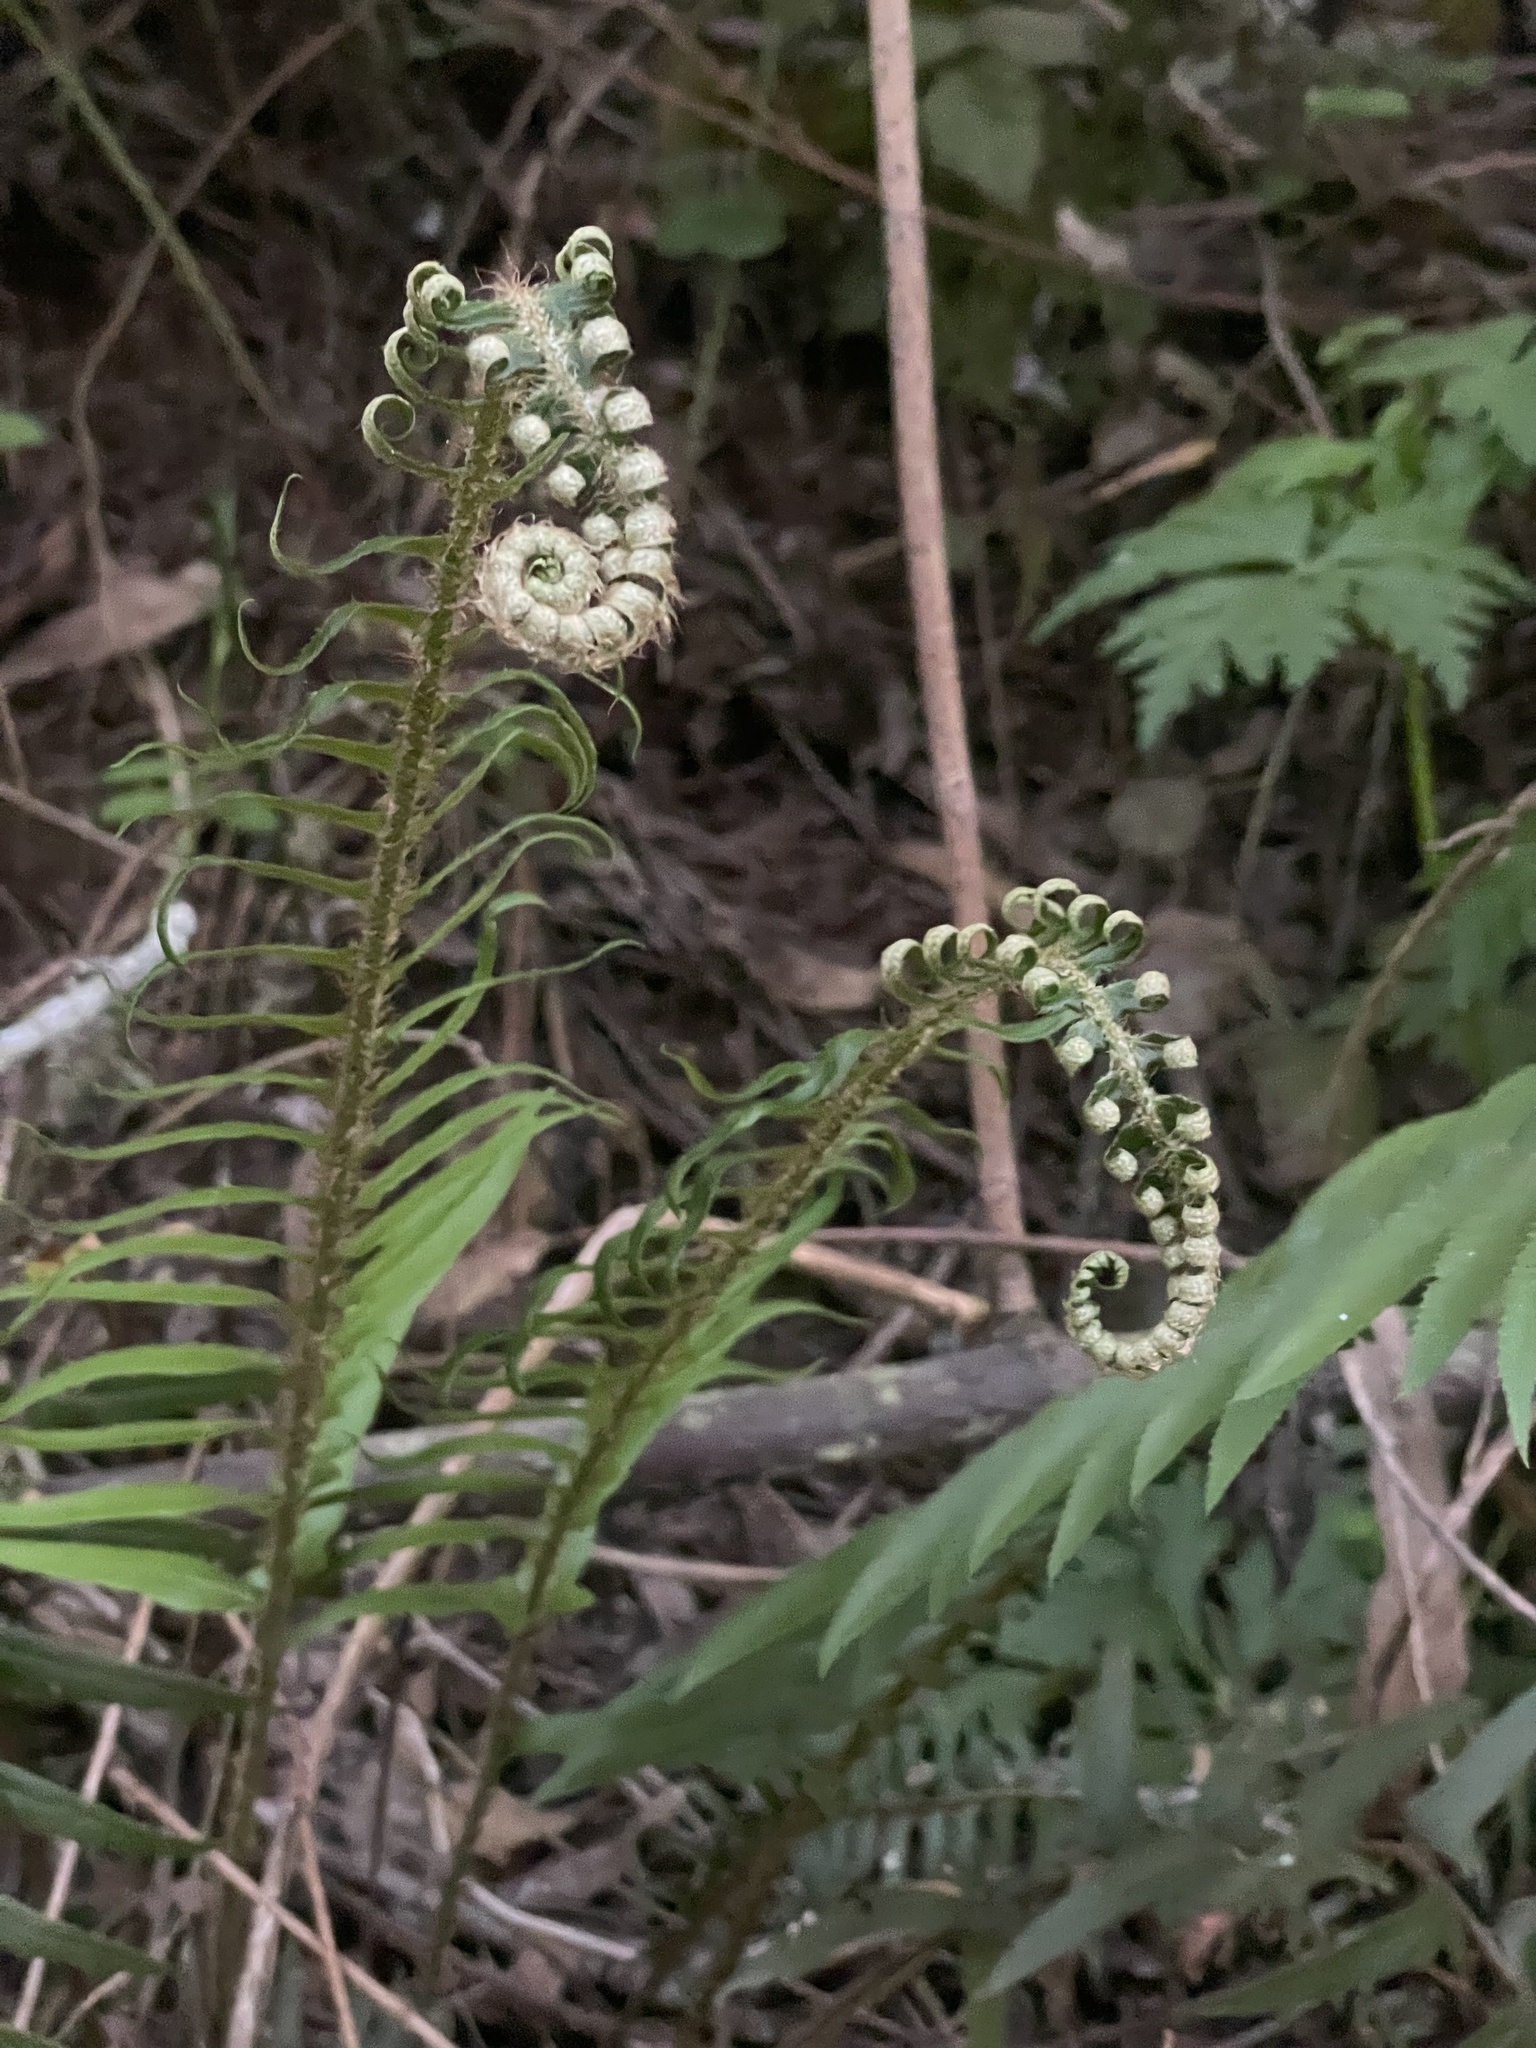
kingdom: Plantae
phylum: Tracheophyta
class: Polypodiopsida
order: Polypodiales
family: Dryopteridaceae
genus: Polystichum
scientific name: Polystichum munitum
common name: Western sword-fern
